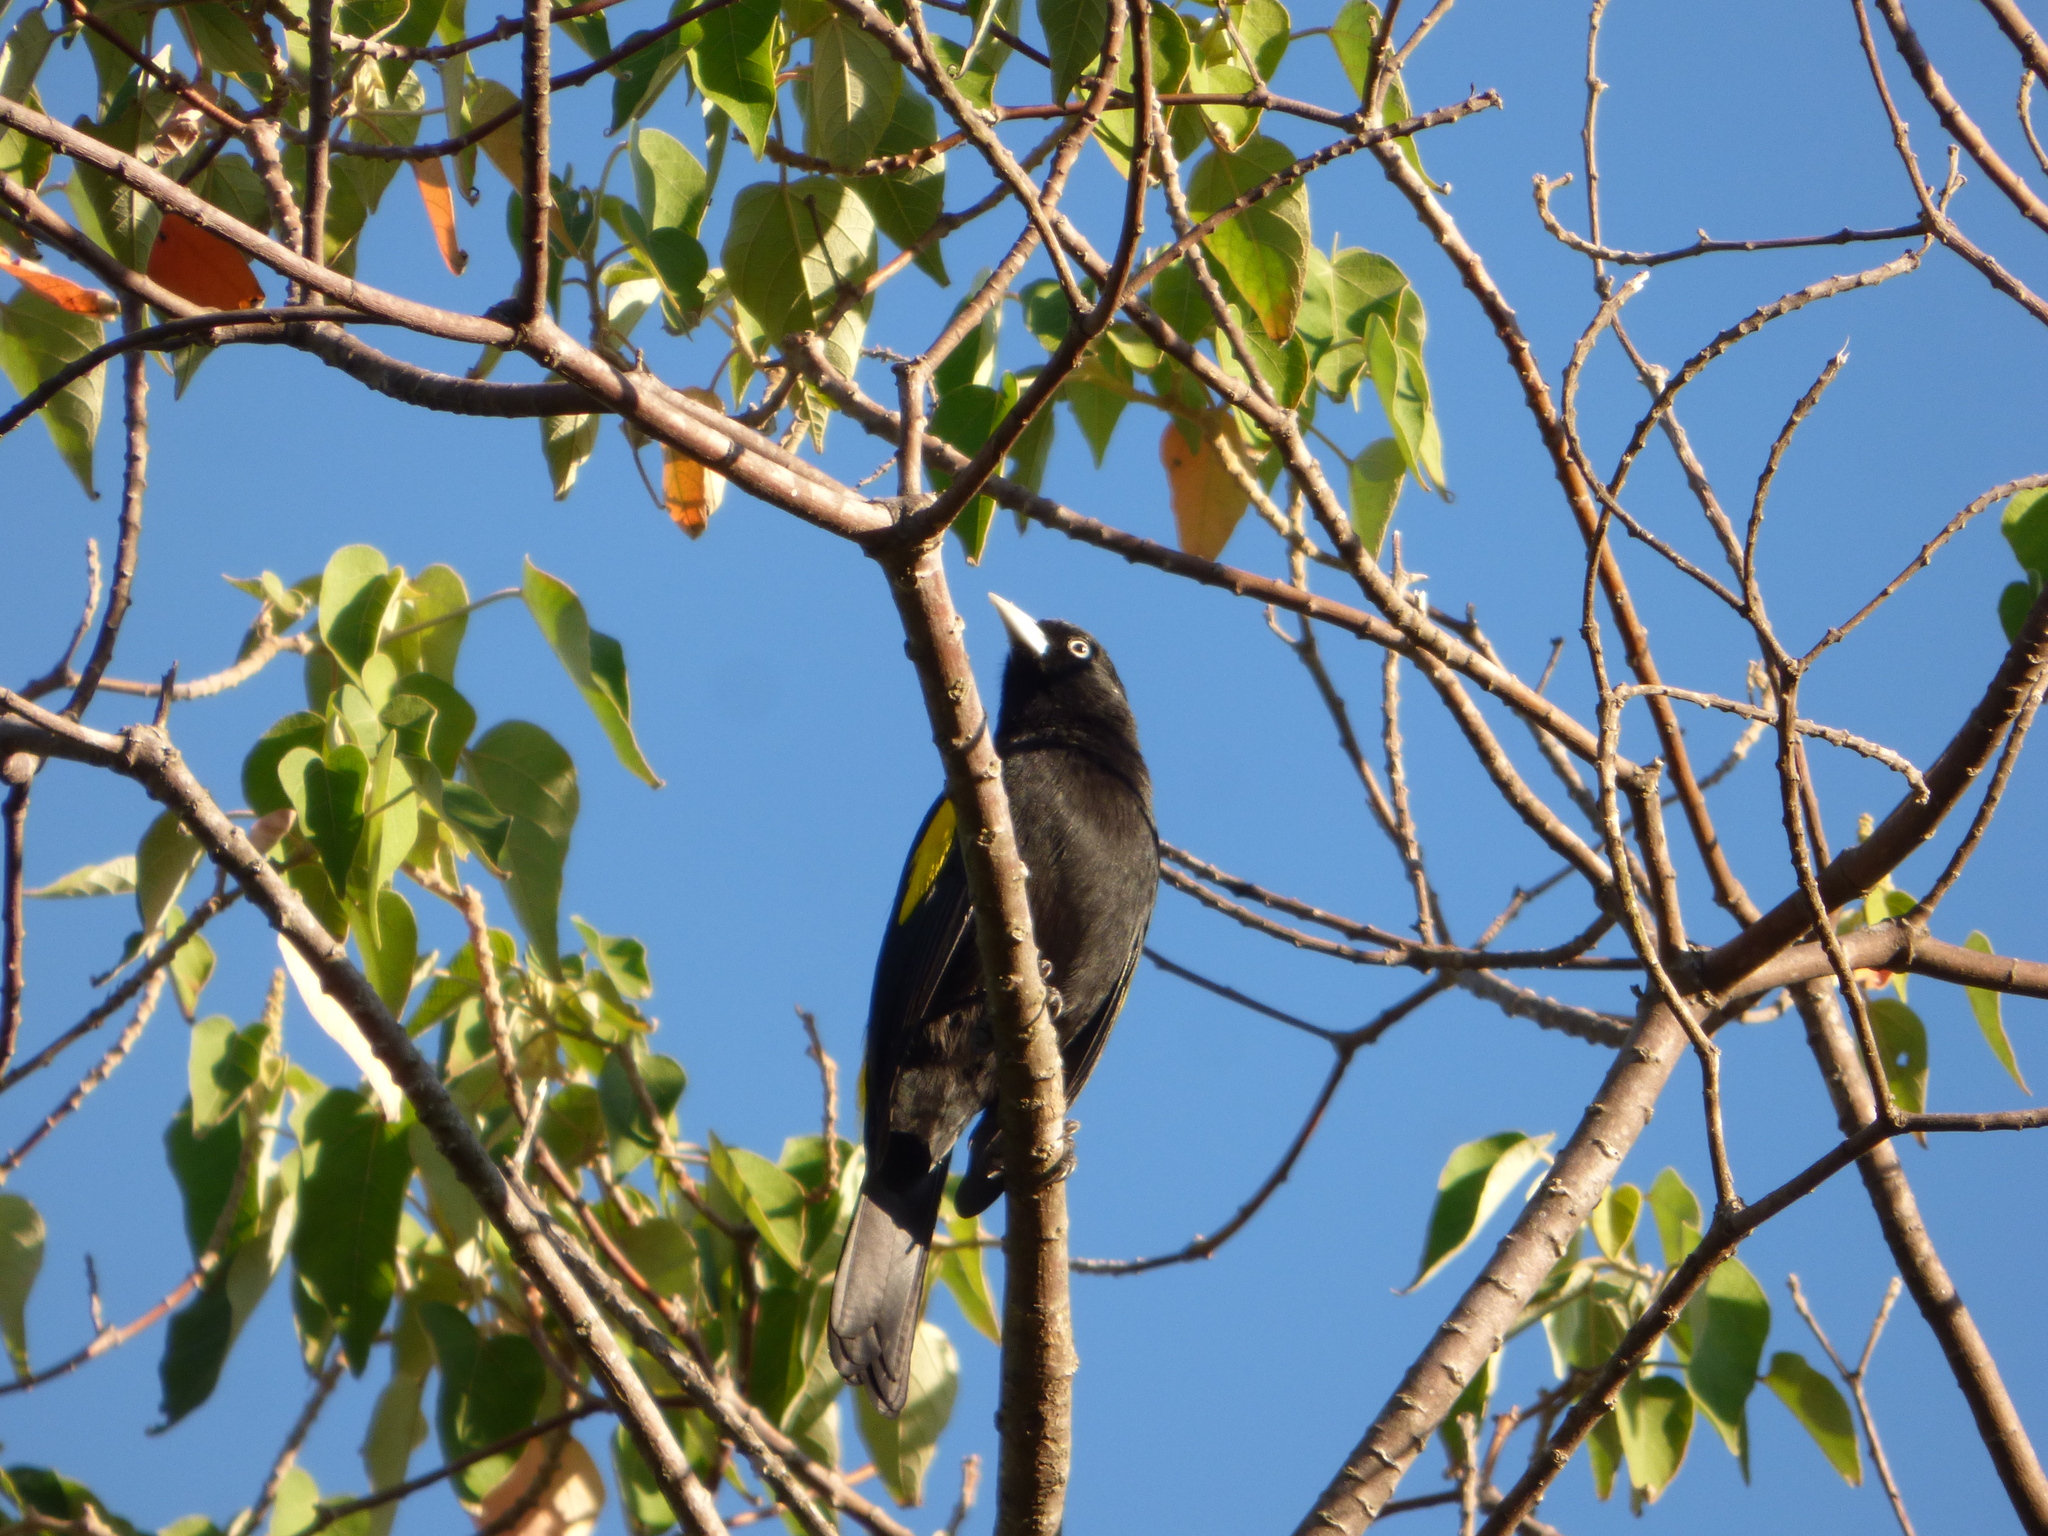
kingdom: Animalia
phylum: Chordata
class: Aves
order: Passeriformes
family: Icteridae
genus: Cacicus
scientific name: Cacicus chrysopterus
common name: Golden-winged cacique
